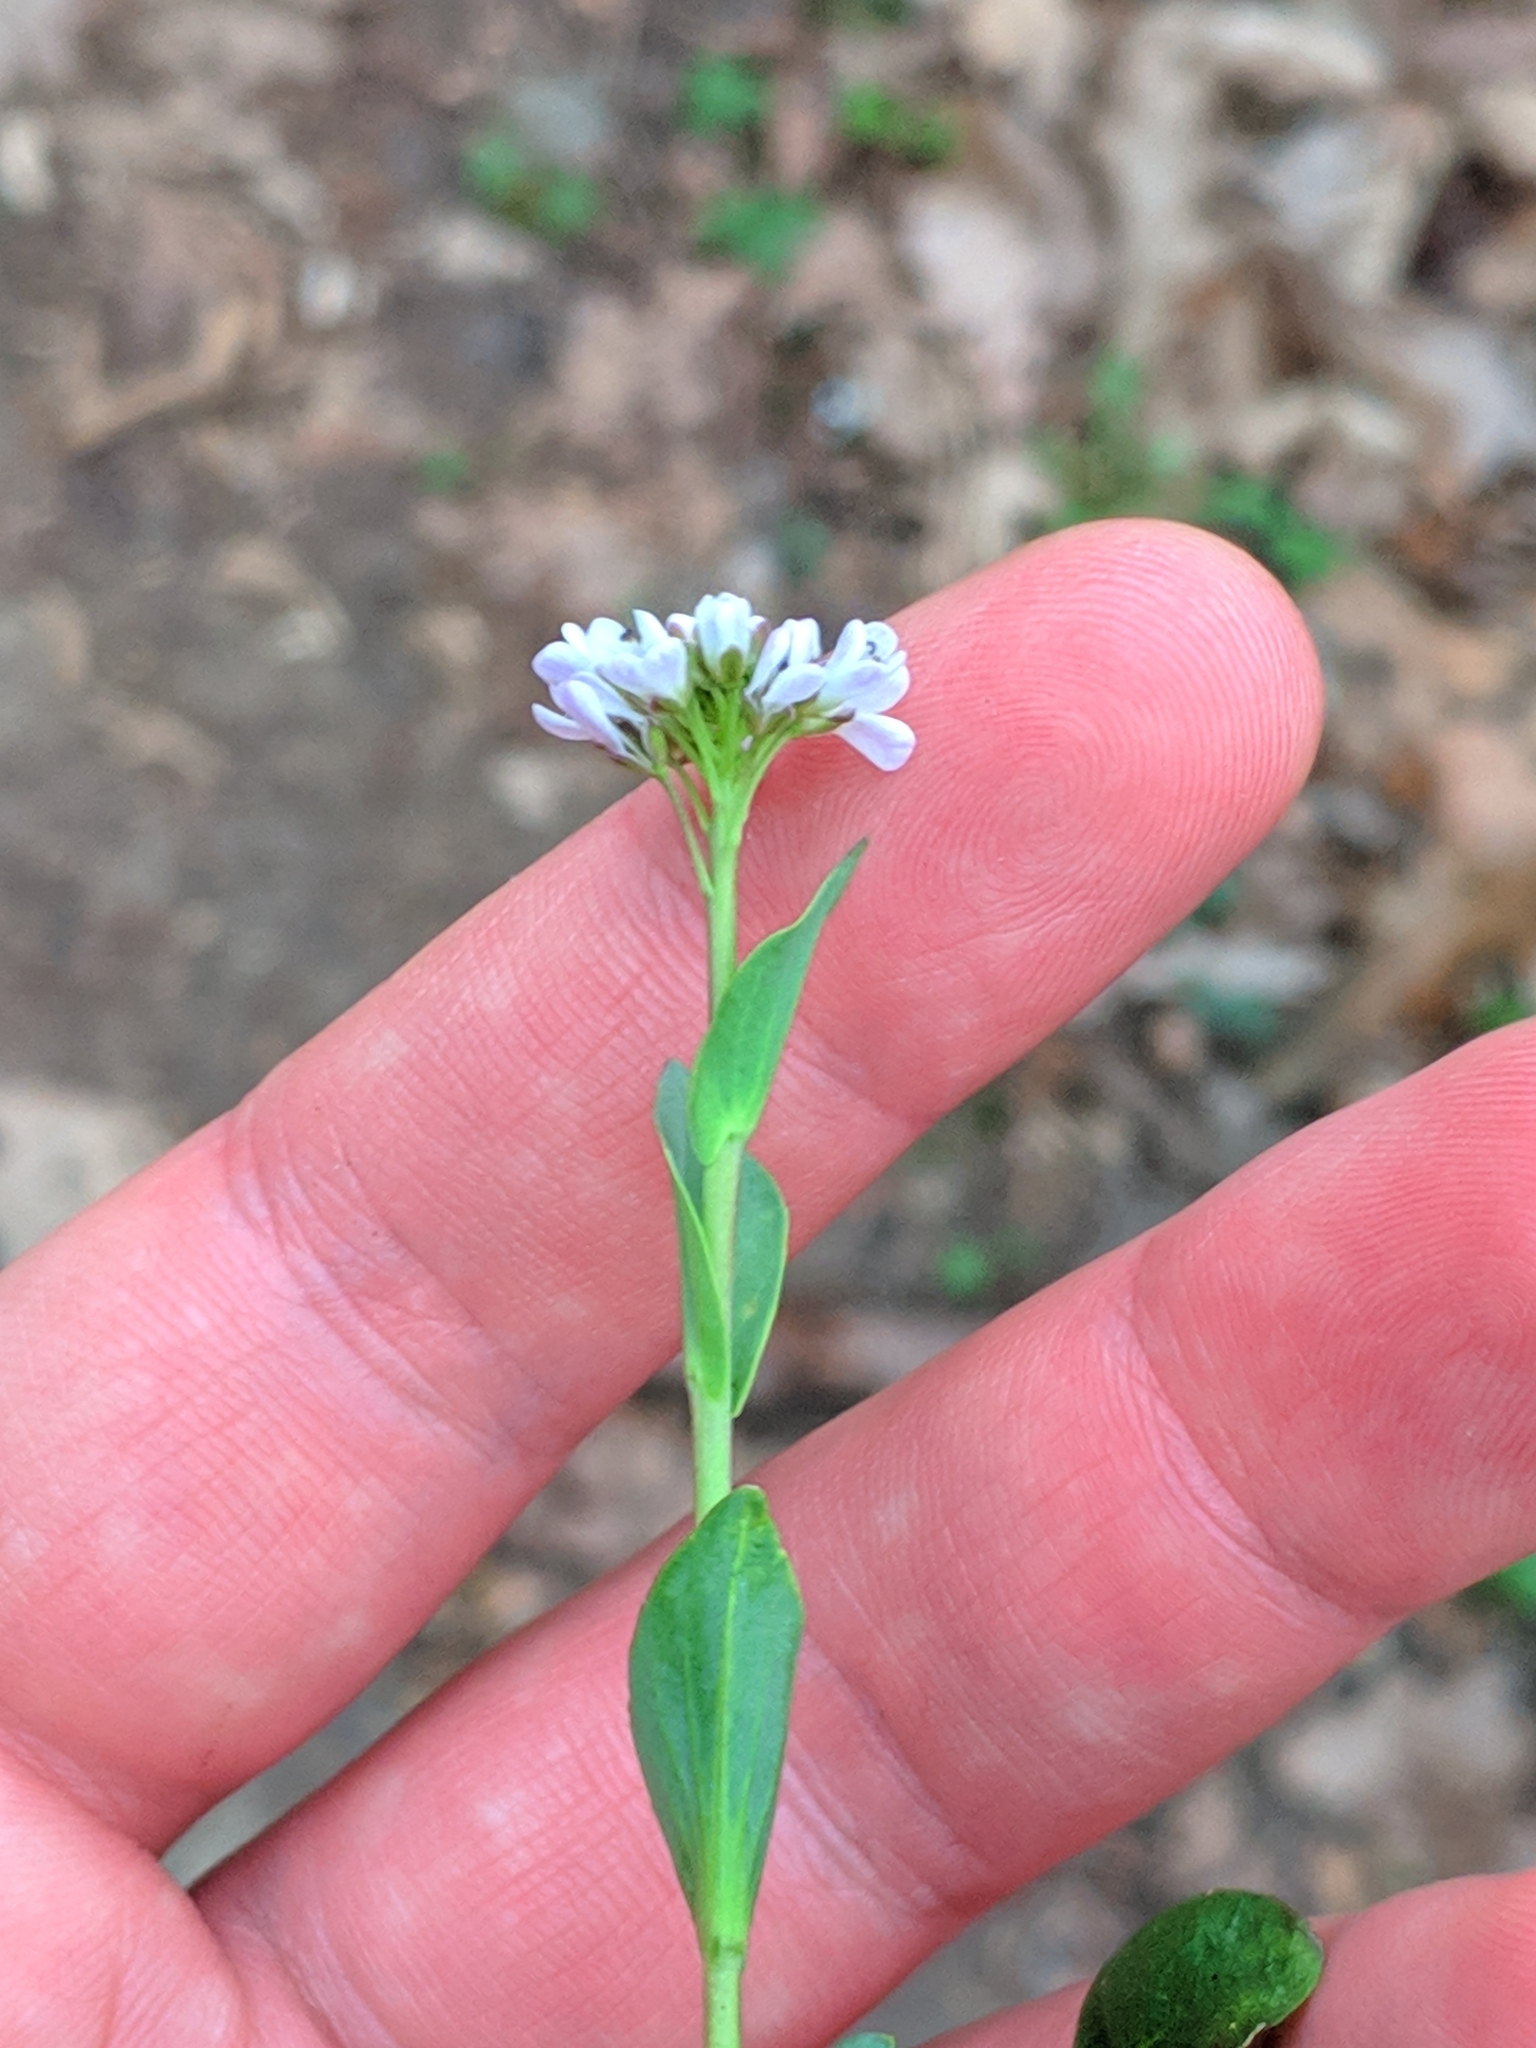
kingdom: Plantae
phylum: Tracheophyta
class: Magnoliopsida
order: Brassicales
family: Brassicaceae
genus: Noccaea
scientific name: Noccaea caerulescens
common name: Alpine pennycress
